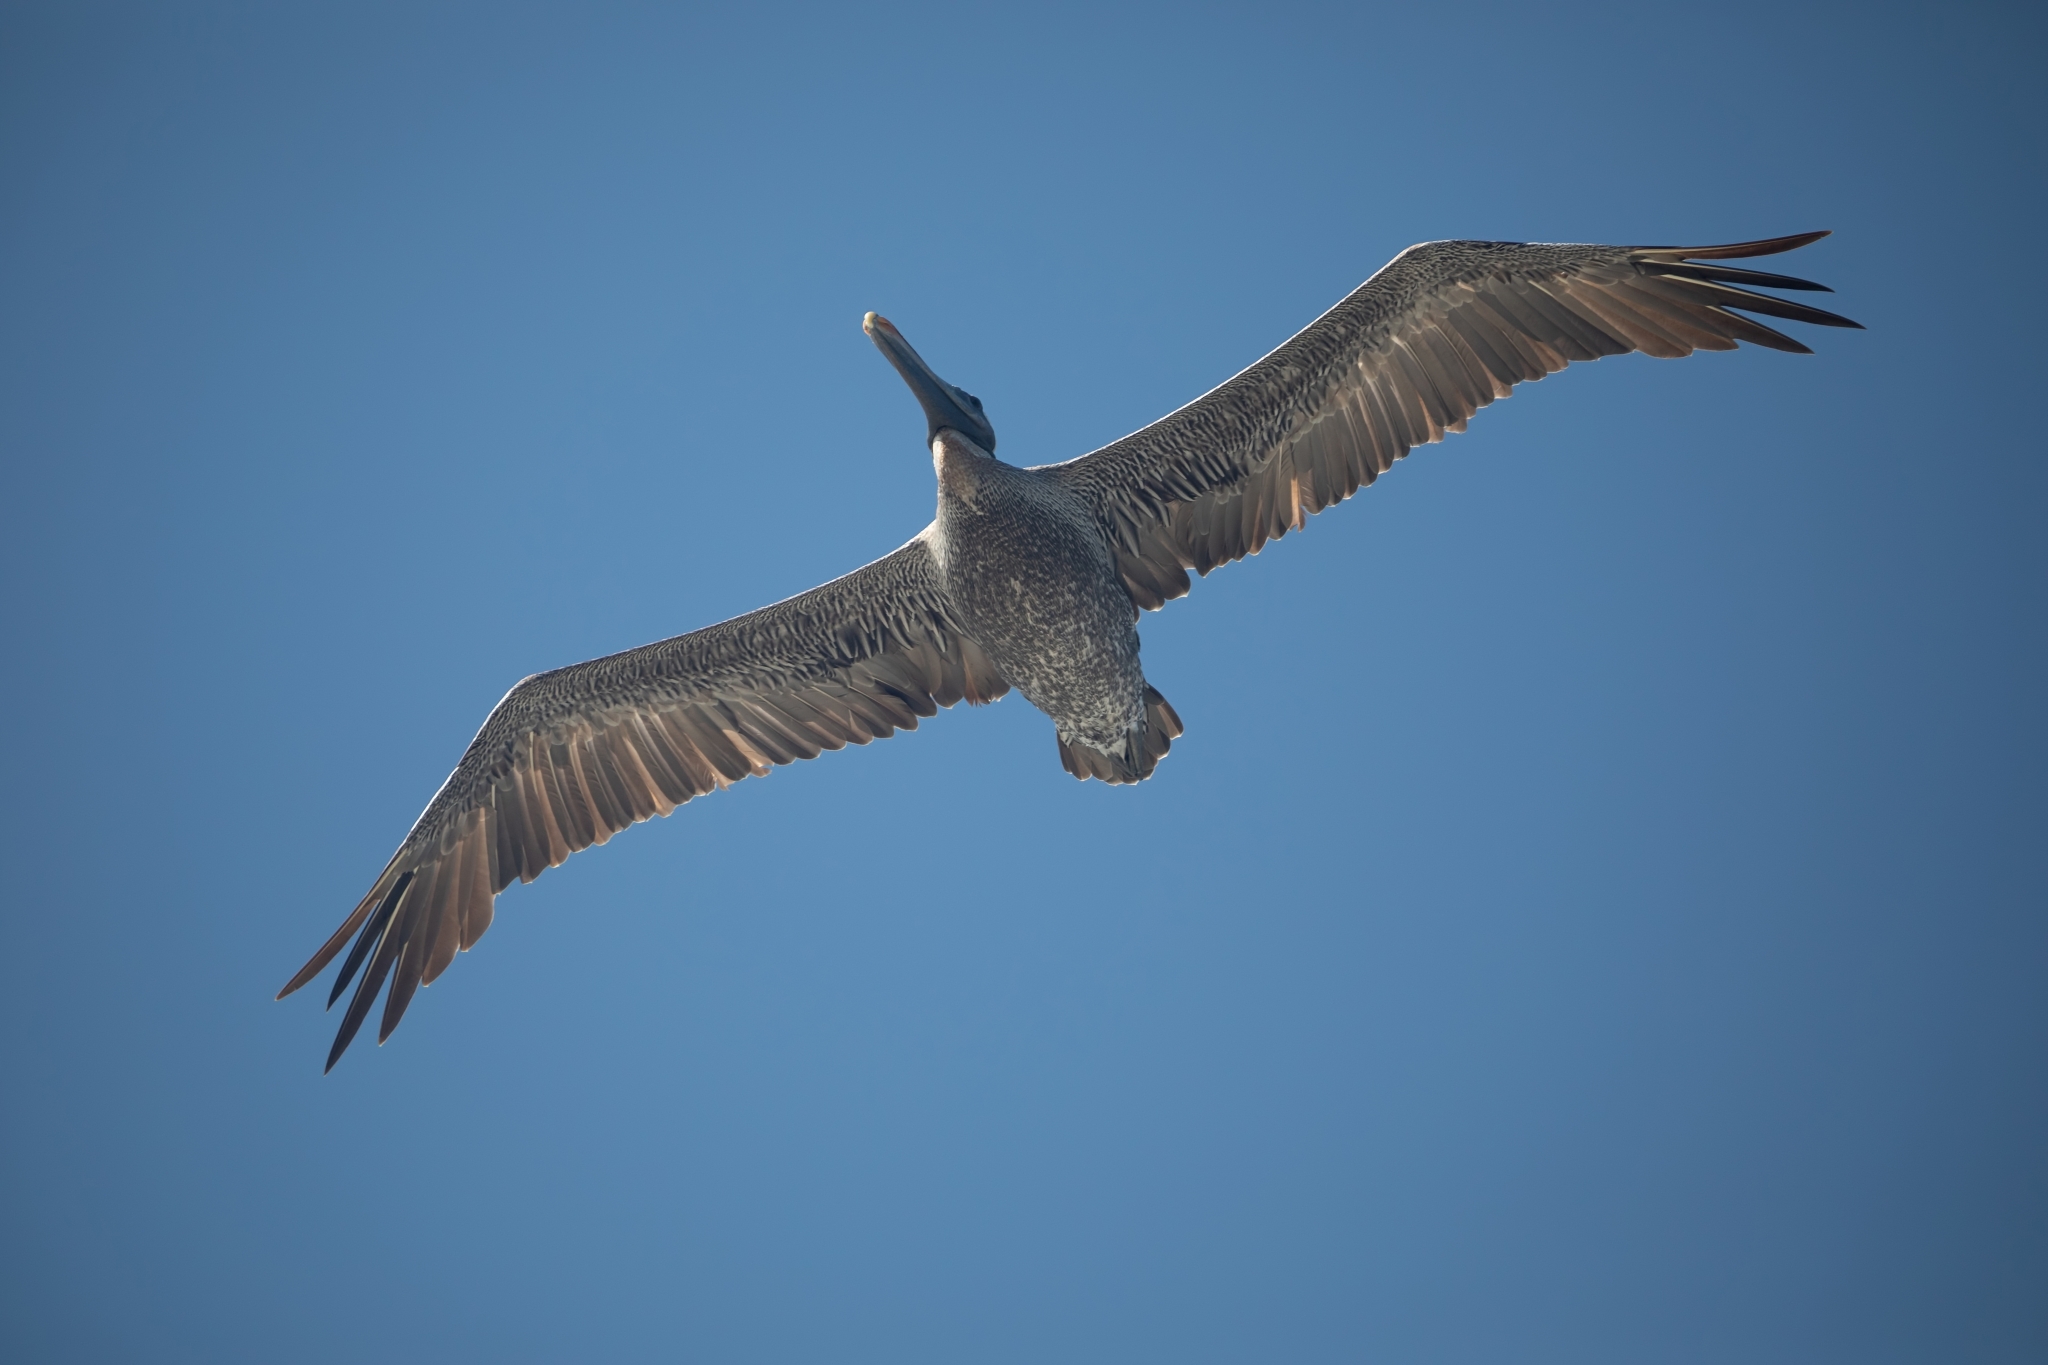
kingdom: Animalia
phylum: Chordata
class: Aves
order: Pelecaniformes
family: Pelecanidae
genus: Pelecanus
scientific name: Pelecanus occidentalis
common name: Brown pelican
